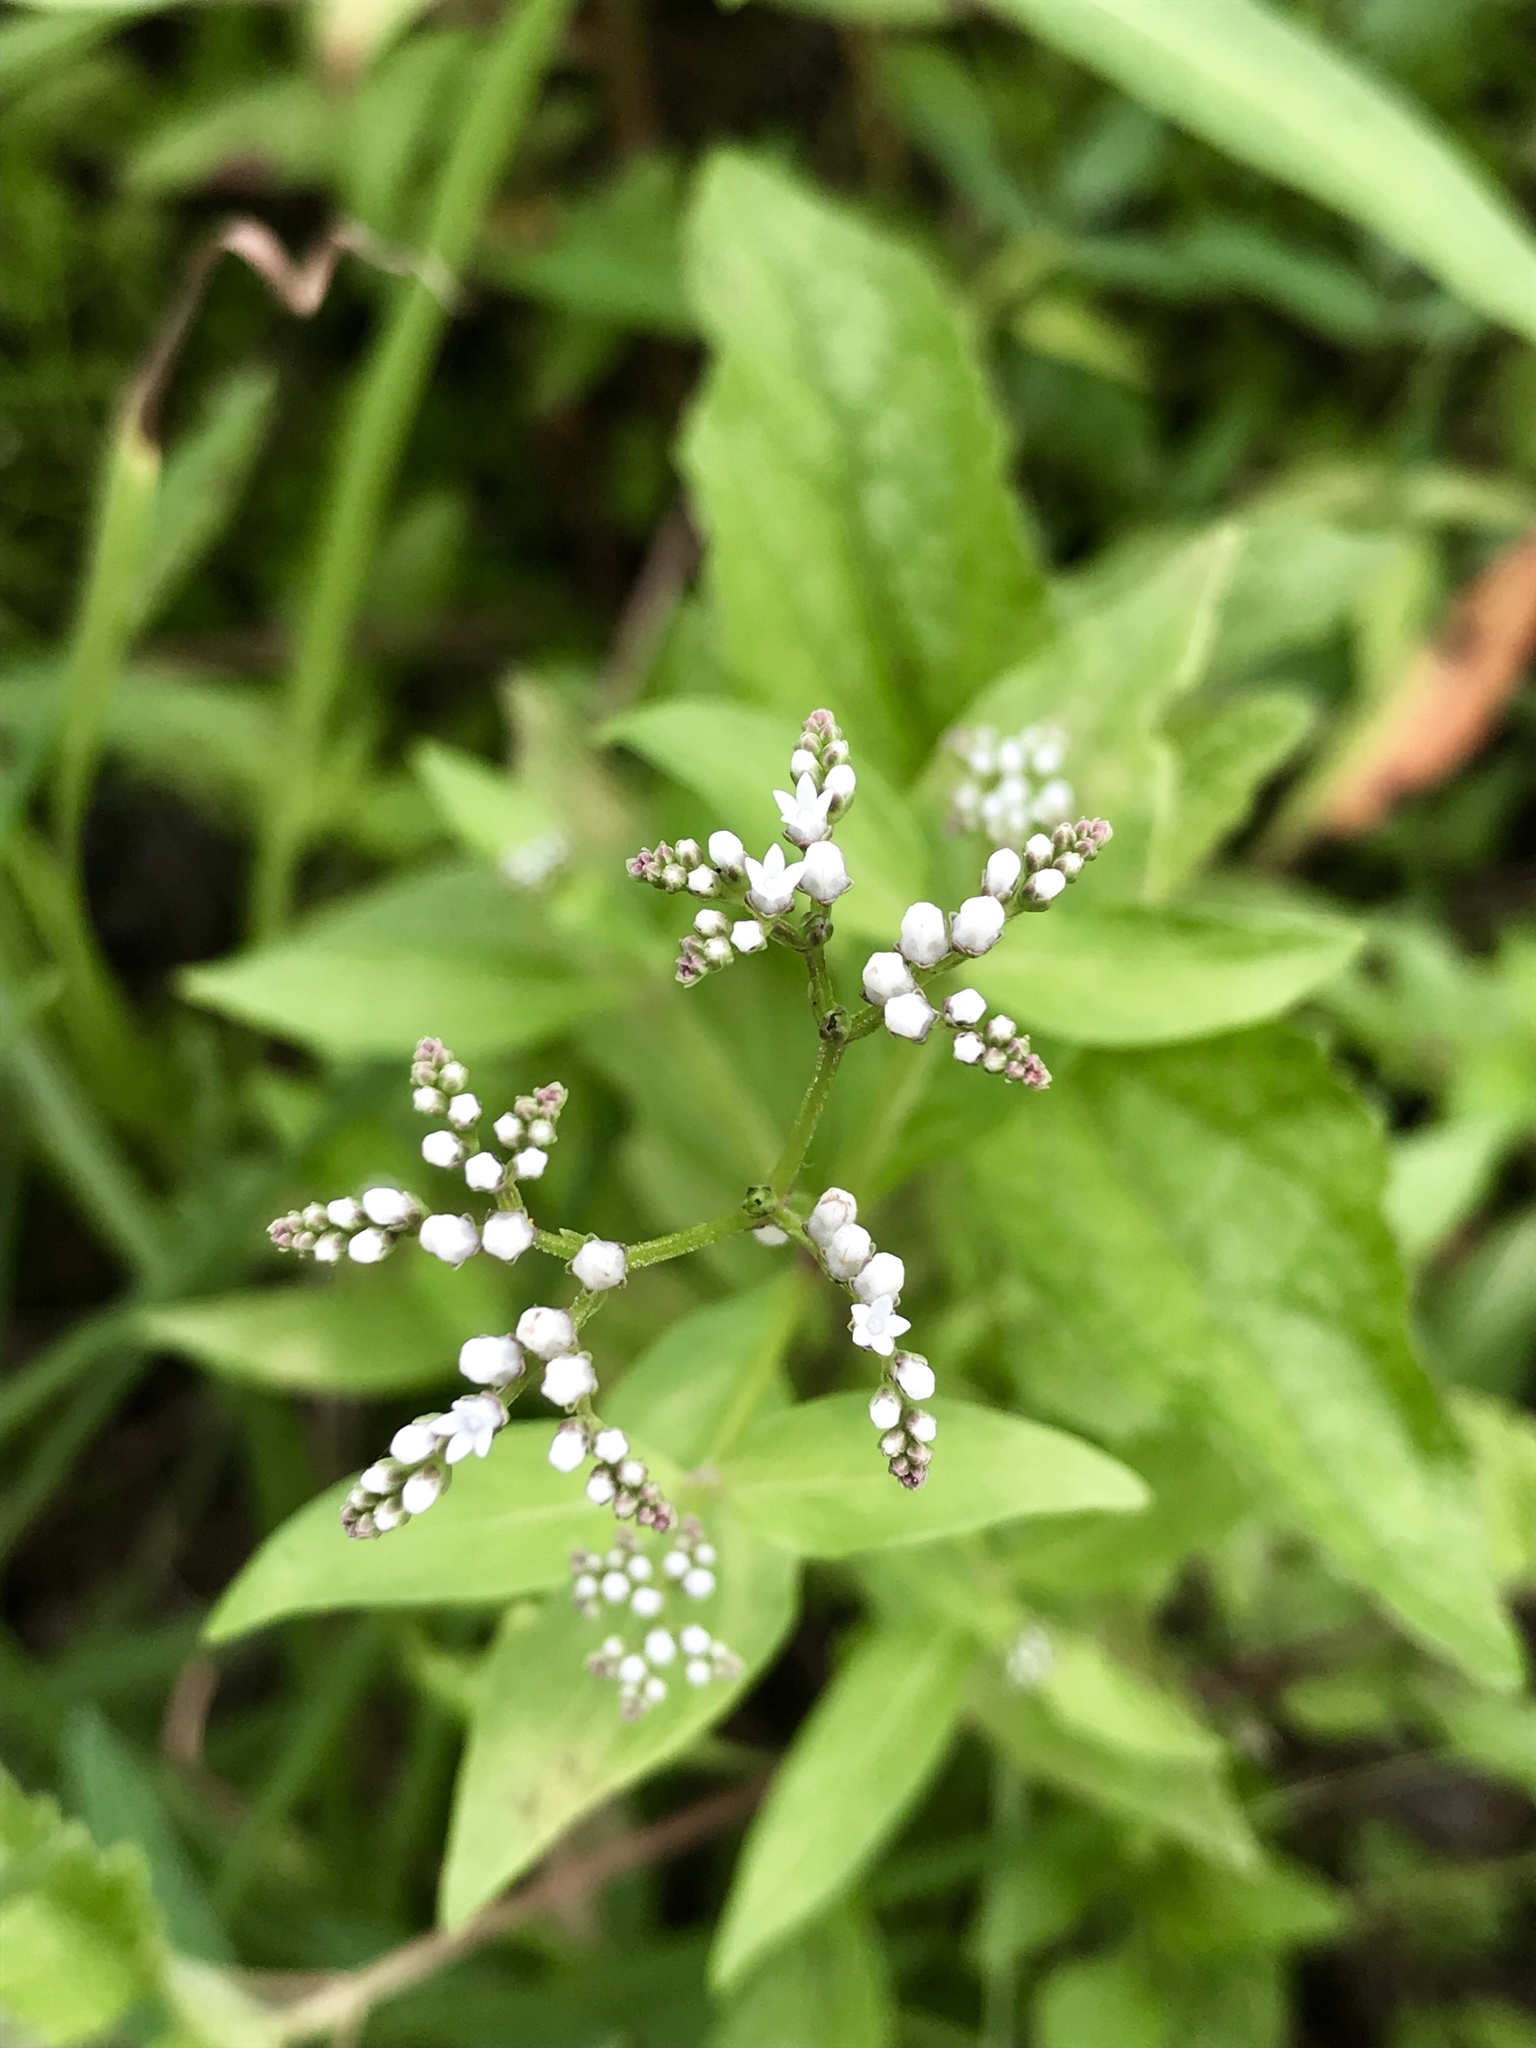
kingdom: Plantae
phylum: Tracheophyta
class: Magnoliopsida
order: Gentianales
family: Loganiaceae
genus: Mitreola
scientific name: Mitreola petiolata
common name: Lax hornpod
